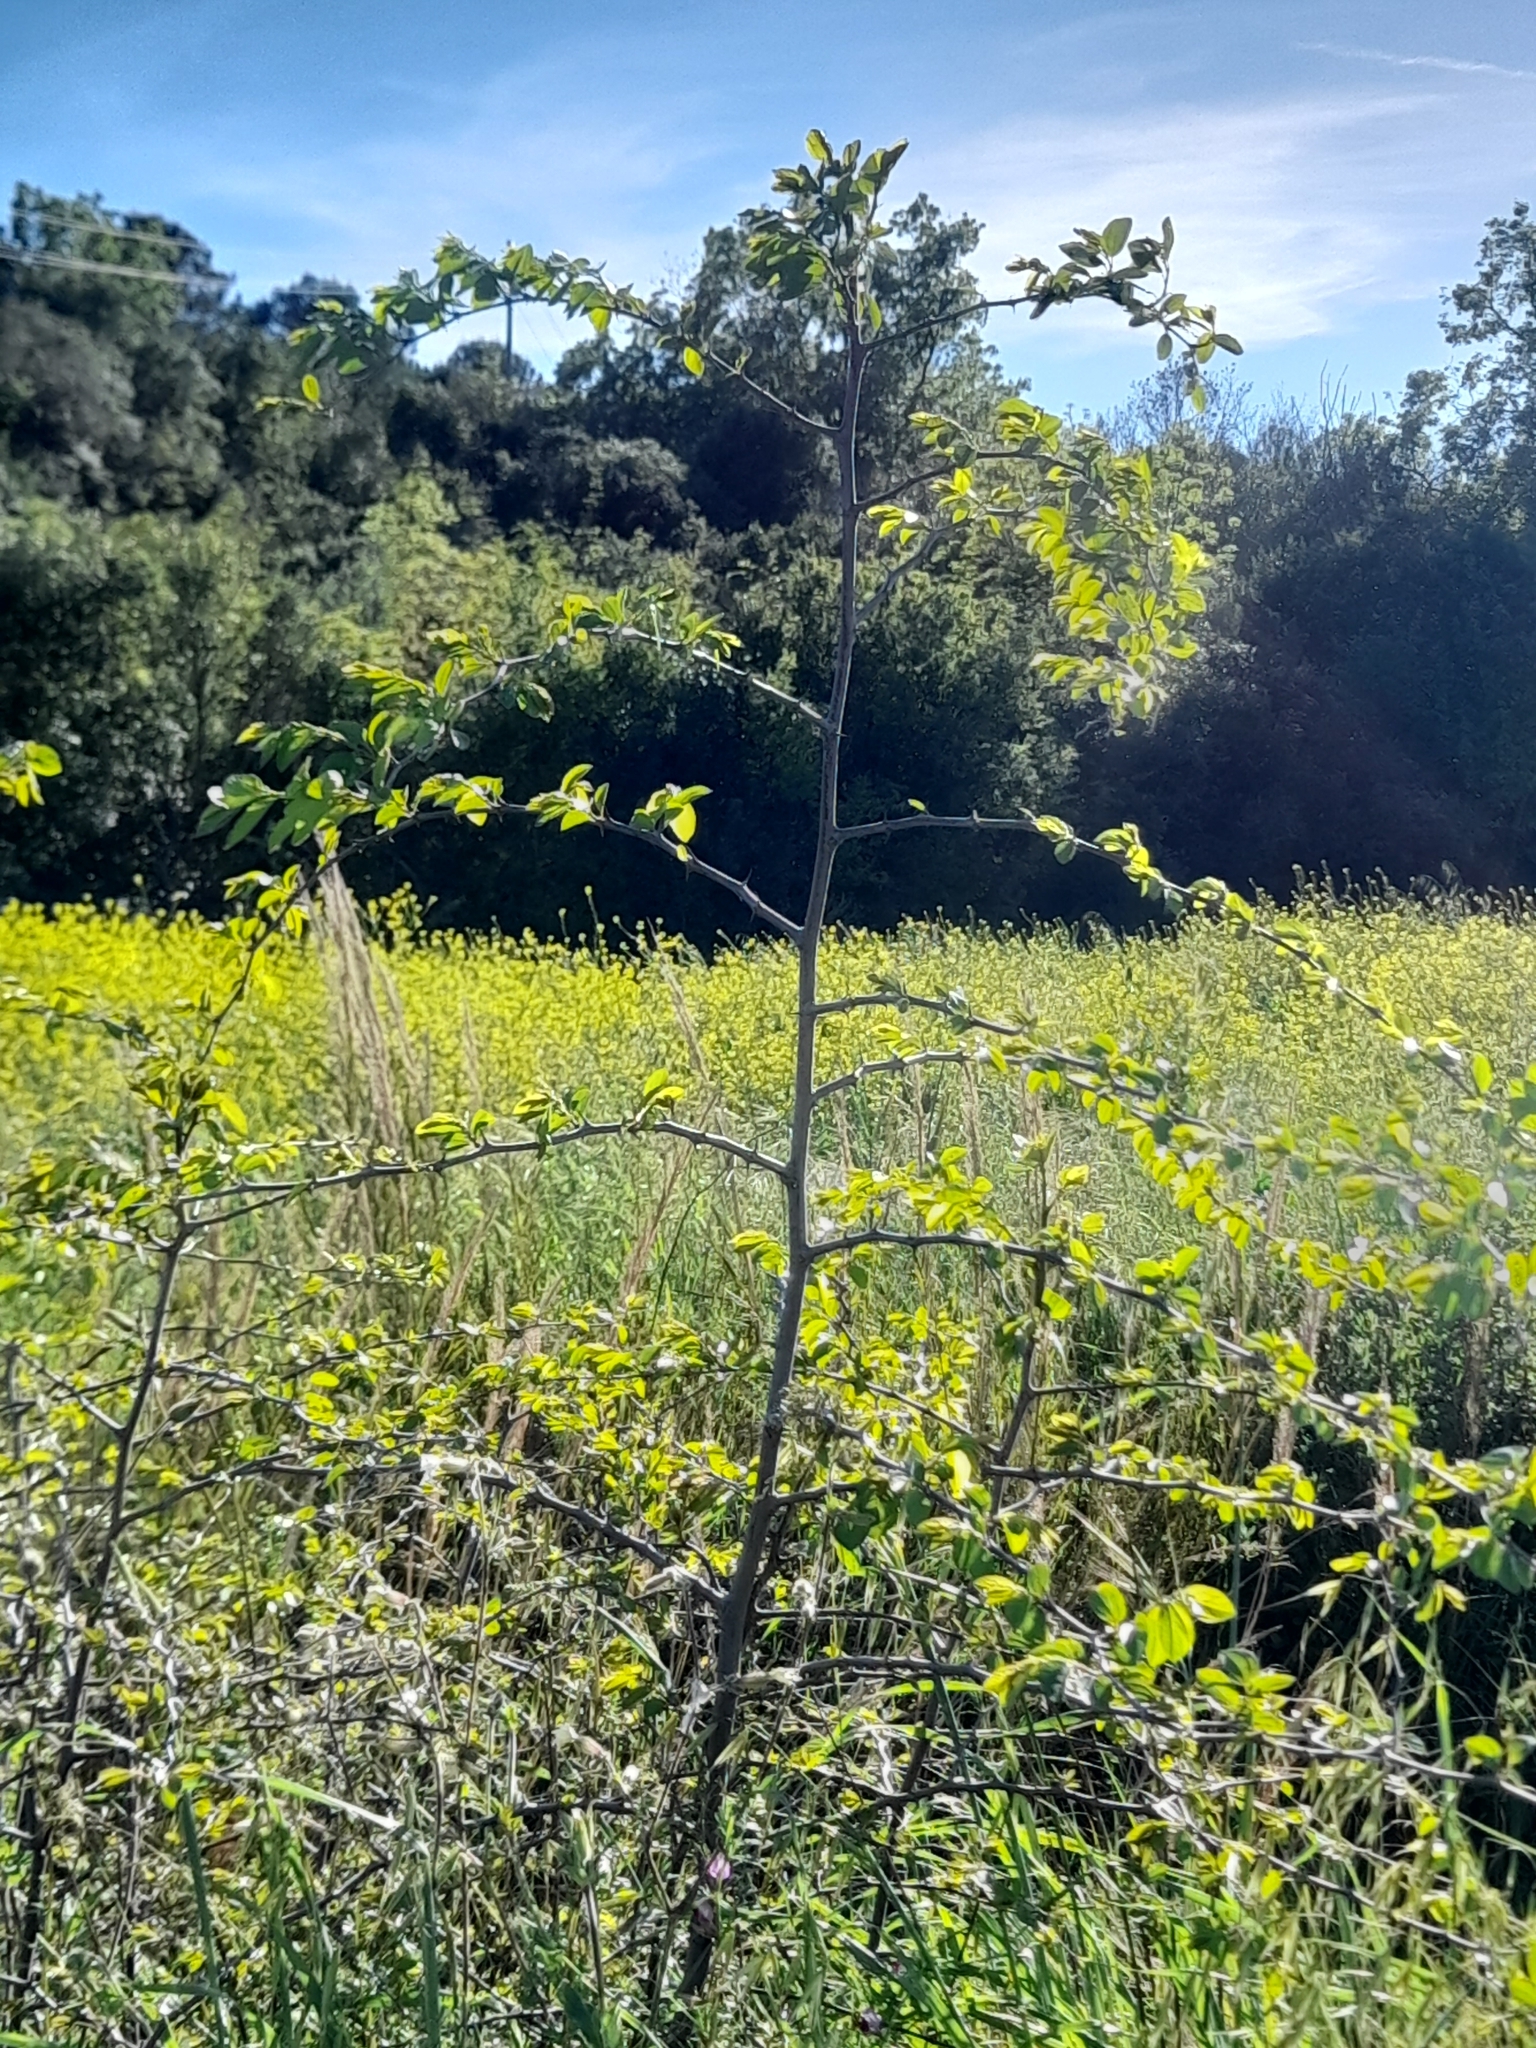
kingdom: Plantae
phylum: Tracheophyta
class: Magnoliopsida
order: Rosales
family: Rhamnaceae
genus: Paliurus
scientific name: Paliurus spina-christi
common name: Jeruselem thorn
